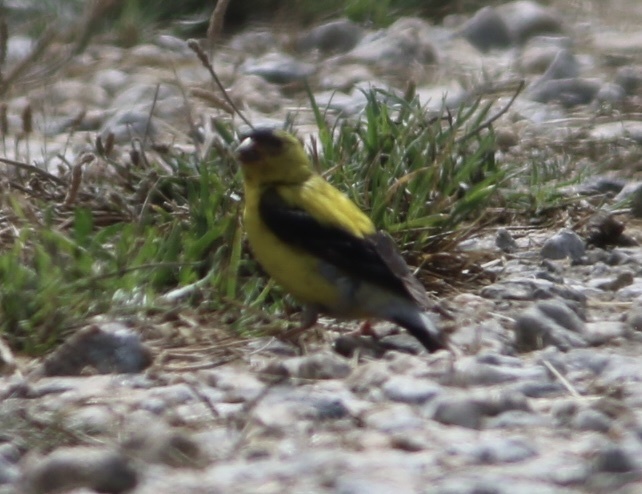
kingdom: Animalia
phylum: Chordata
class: Aves
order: Passeriformes
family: Fringillidae
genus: Spinus
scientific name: Spinus tristis
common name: American goldfinch
